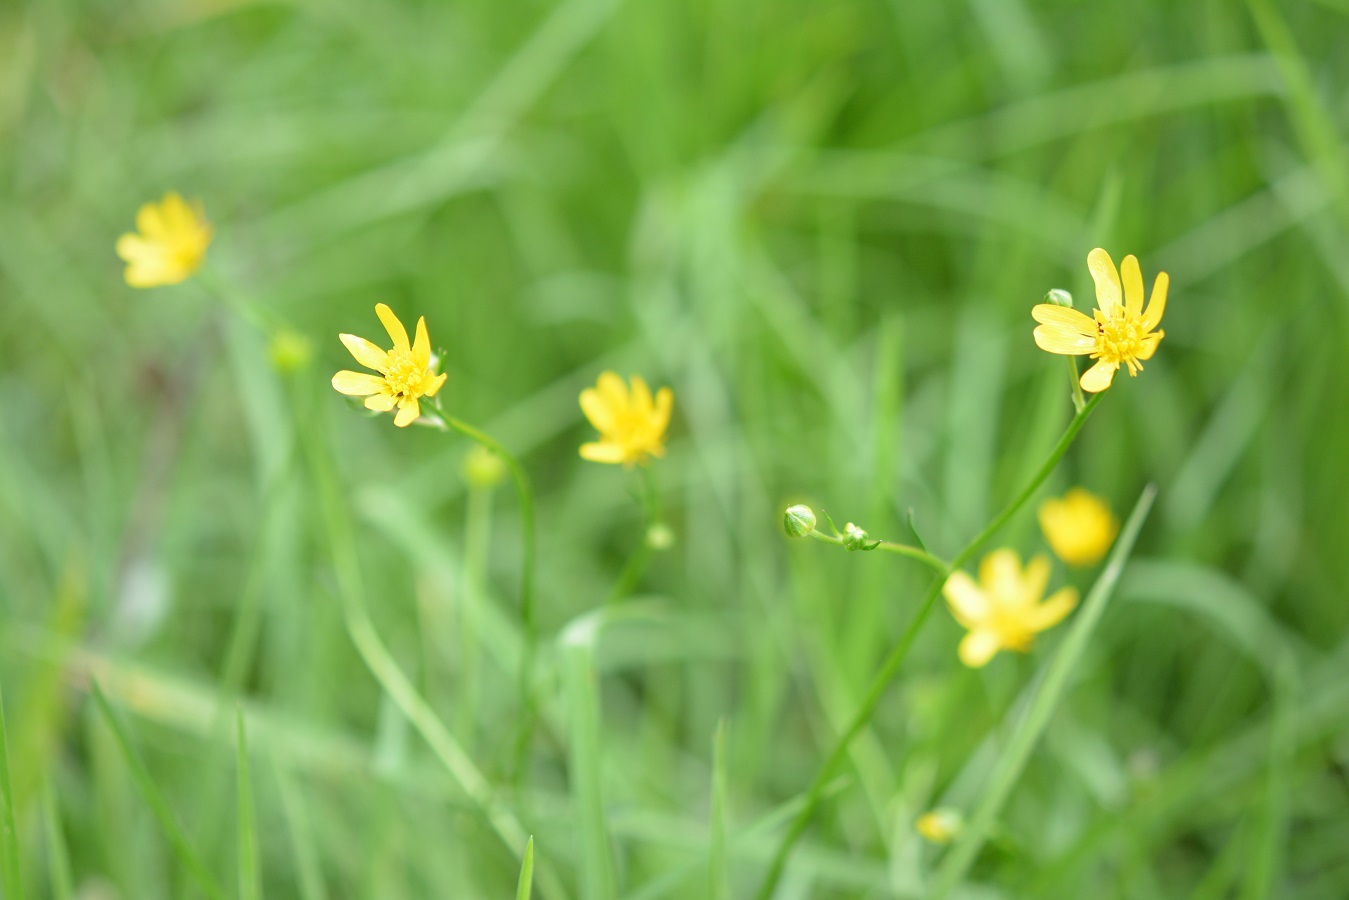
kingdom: Plantae
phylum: Tracheophyta
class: Magnoliopsida
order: Ranunculales
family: Ranunculaceae
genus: Ranunculus
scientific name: Ranunculus petiolaris
